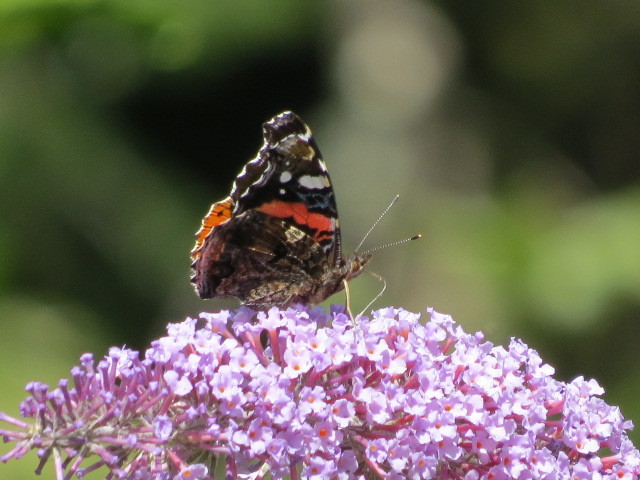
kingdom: Animalia
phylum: Arthropoda
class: Insecta
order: Lepidoptera
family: Nymphalidae
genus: Vanessa
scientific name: Vanessa atalanta
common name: Red admiral
